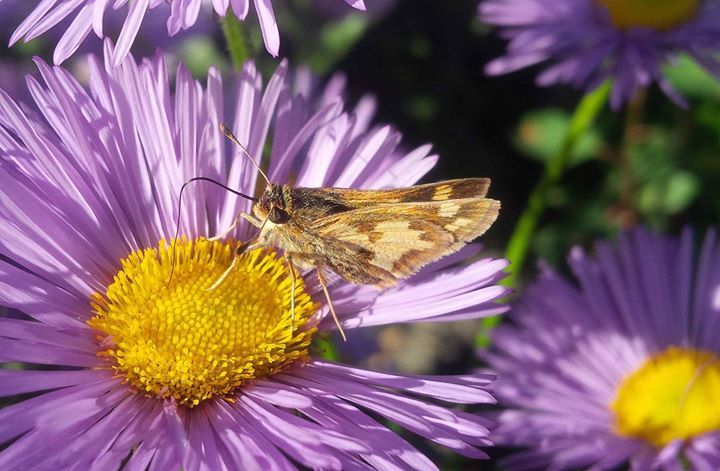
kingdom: Animalia
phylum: Arthropoda
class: Insecta
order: Lepidoptera
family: Hesperiidae
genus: Polites
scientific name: Polites coras
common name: Peck's skipper
